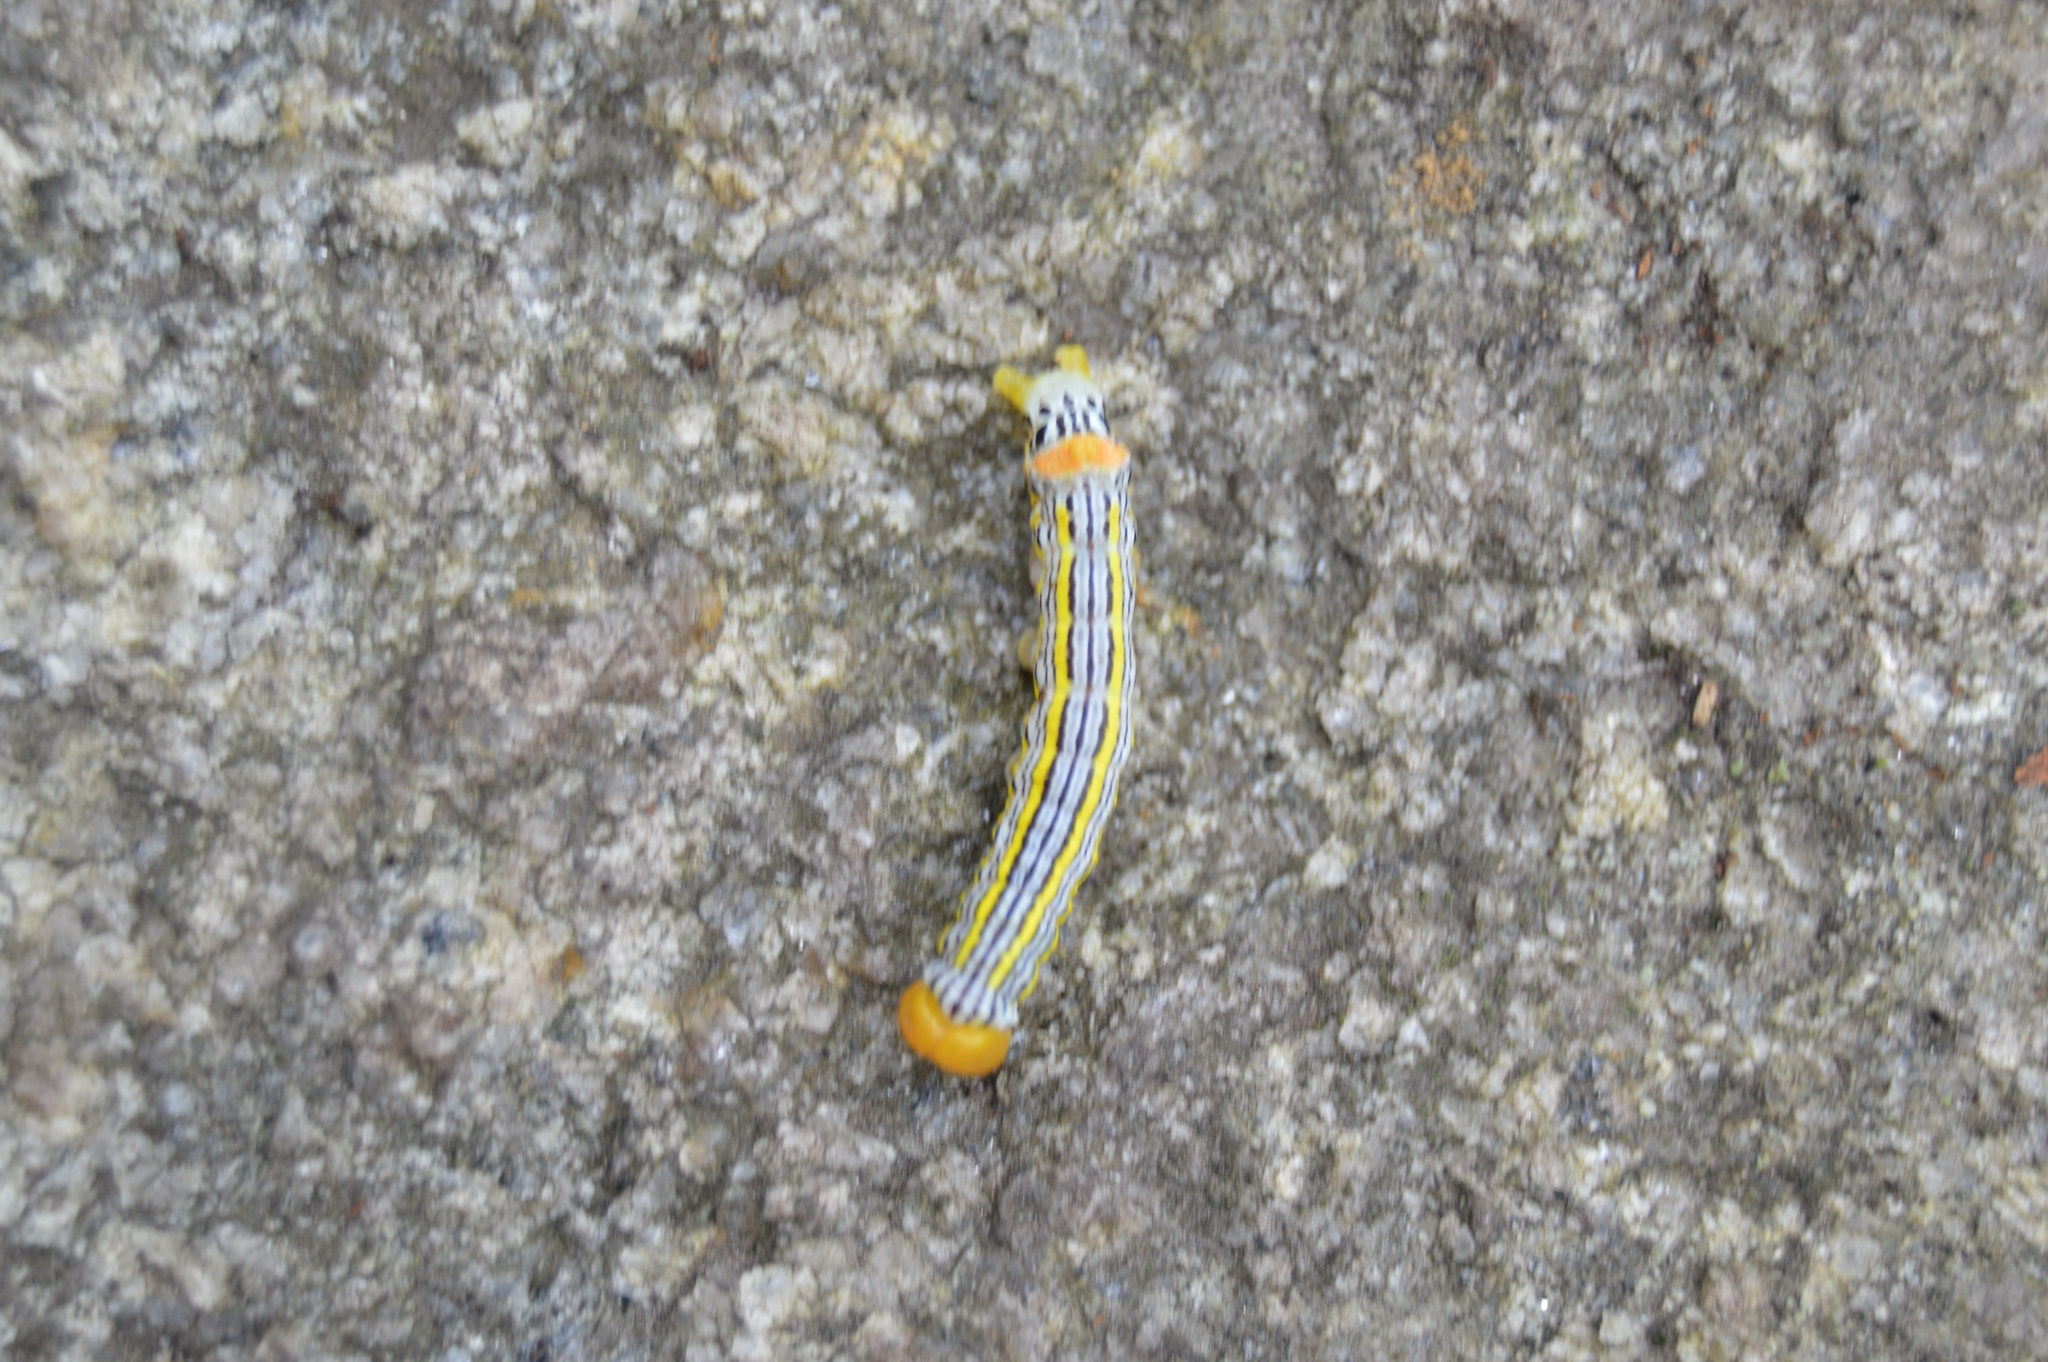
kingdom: Animalia
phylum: Arthropoda
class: Insecta
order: Lepidoptera
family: Notodontidae
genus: Symmerista
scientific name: Symmerista
